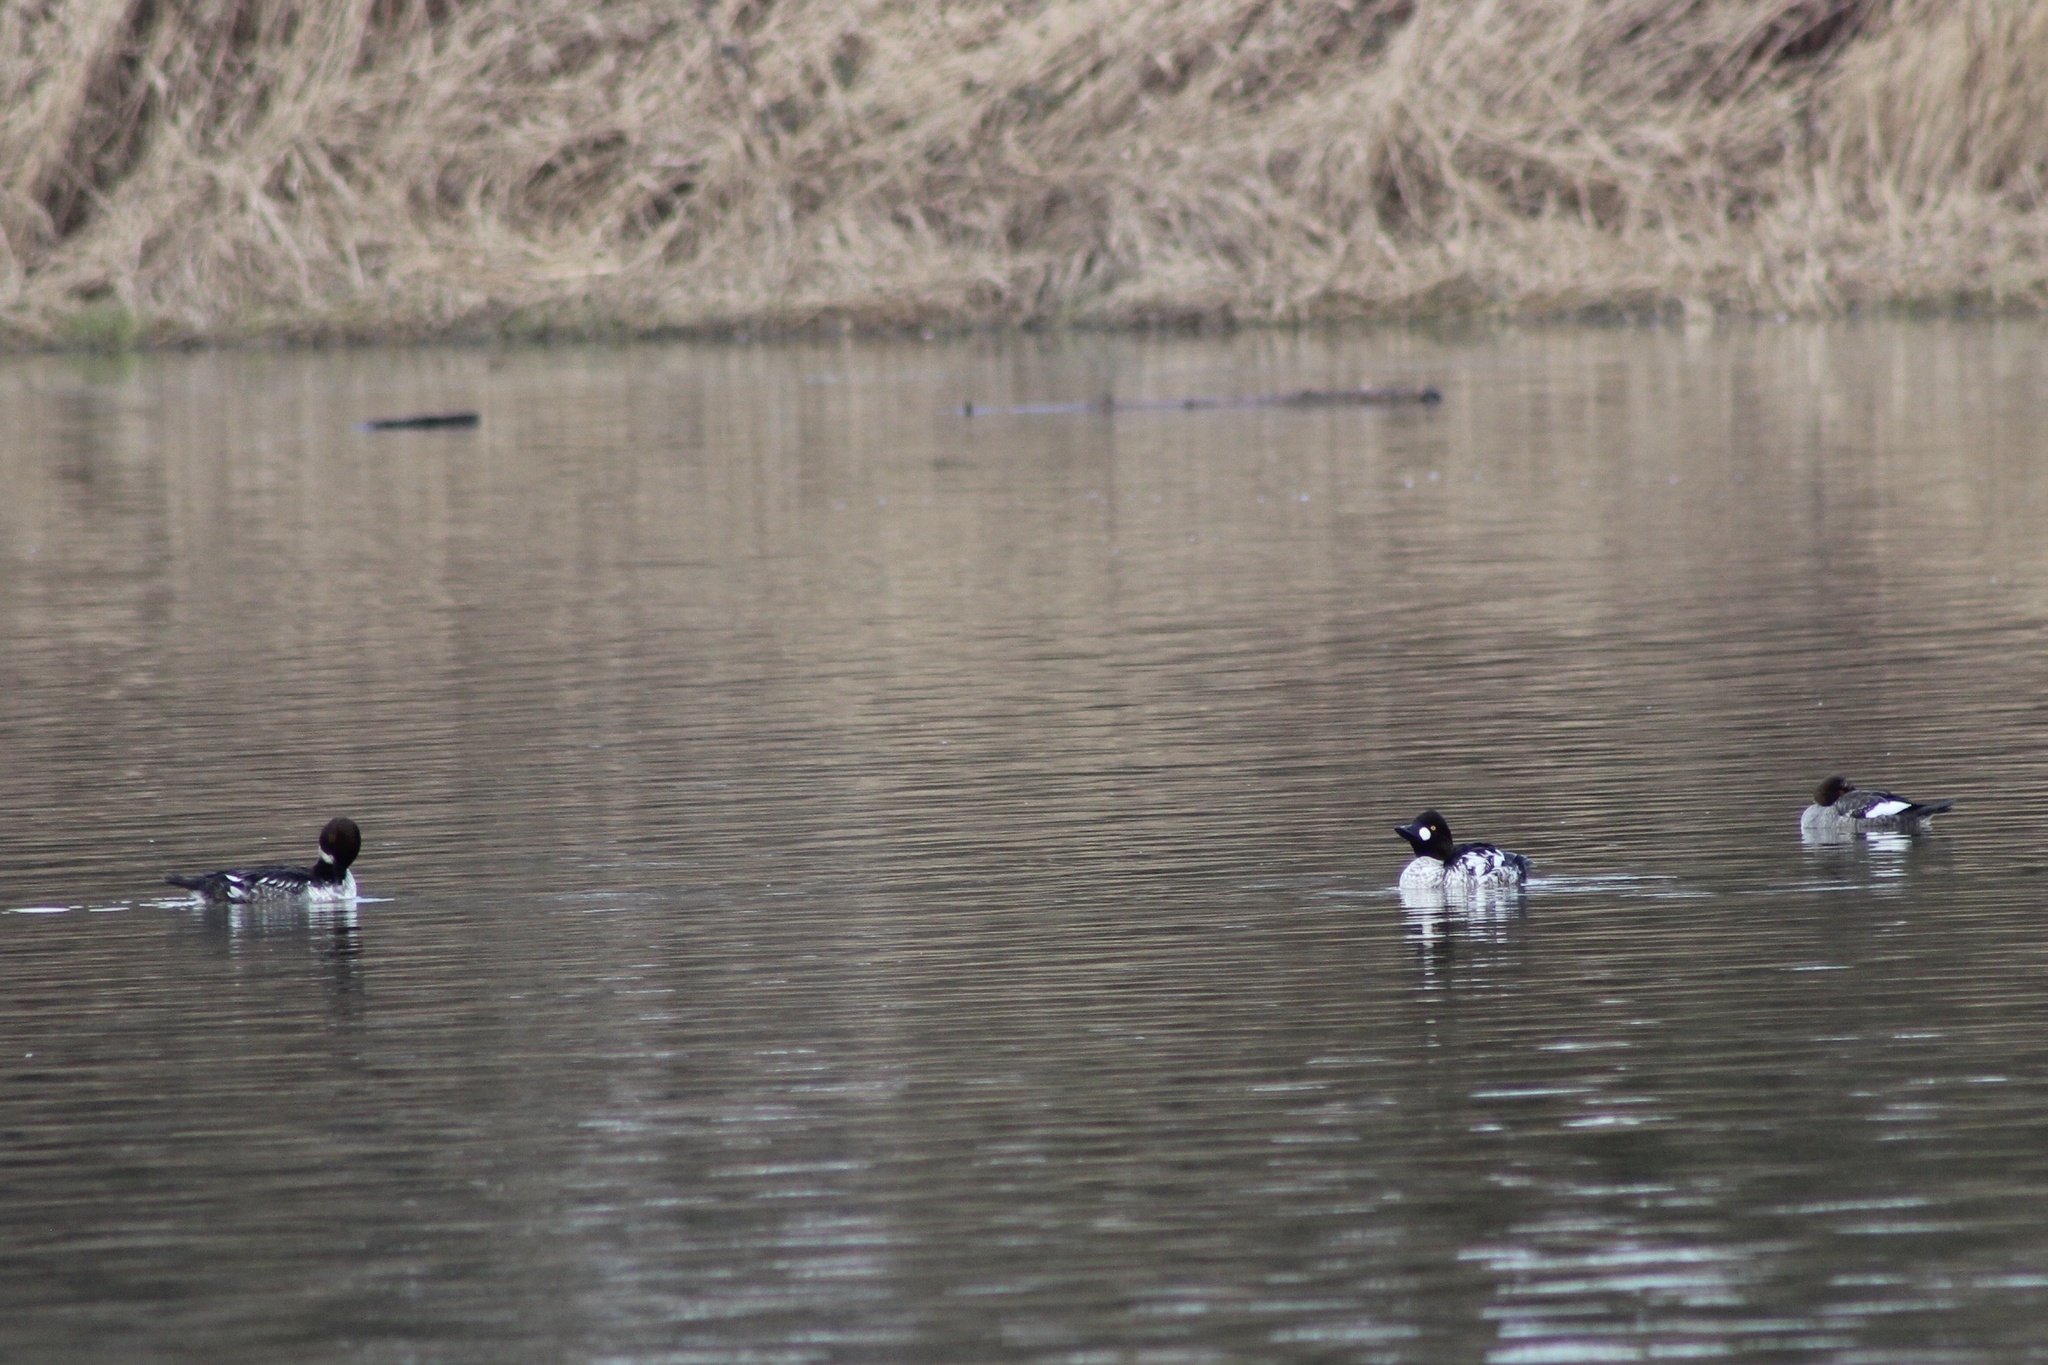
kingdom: Animalia
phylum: Chordata
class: Aves
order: Anseriformes
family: Anatidae
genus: Bucephala
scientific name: Bucephala clangula
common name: Common goldeneye
